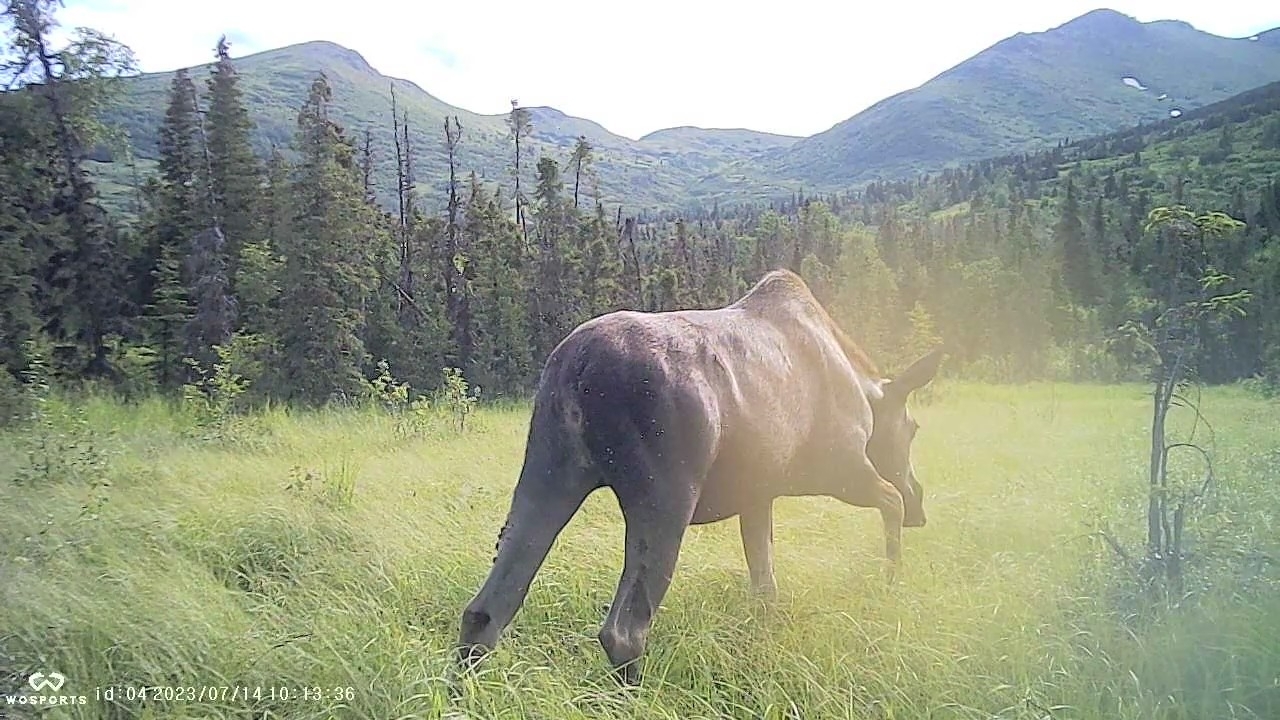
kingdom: Animalia
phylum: Chordata
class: Mammalia
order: Artiodactyla
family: Cervidae
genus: Alces
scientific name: Alces alces
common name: Moose
